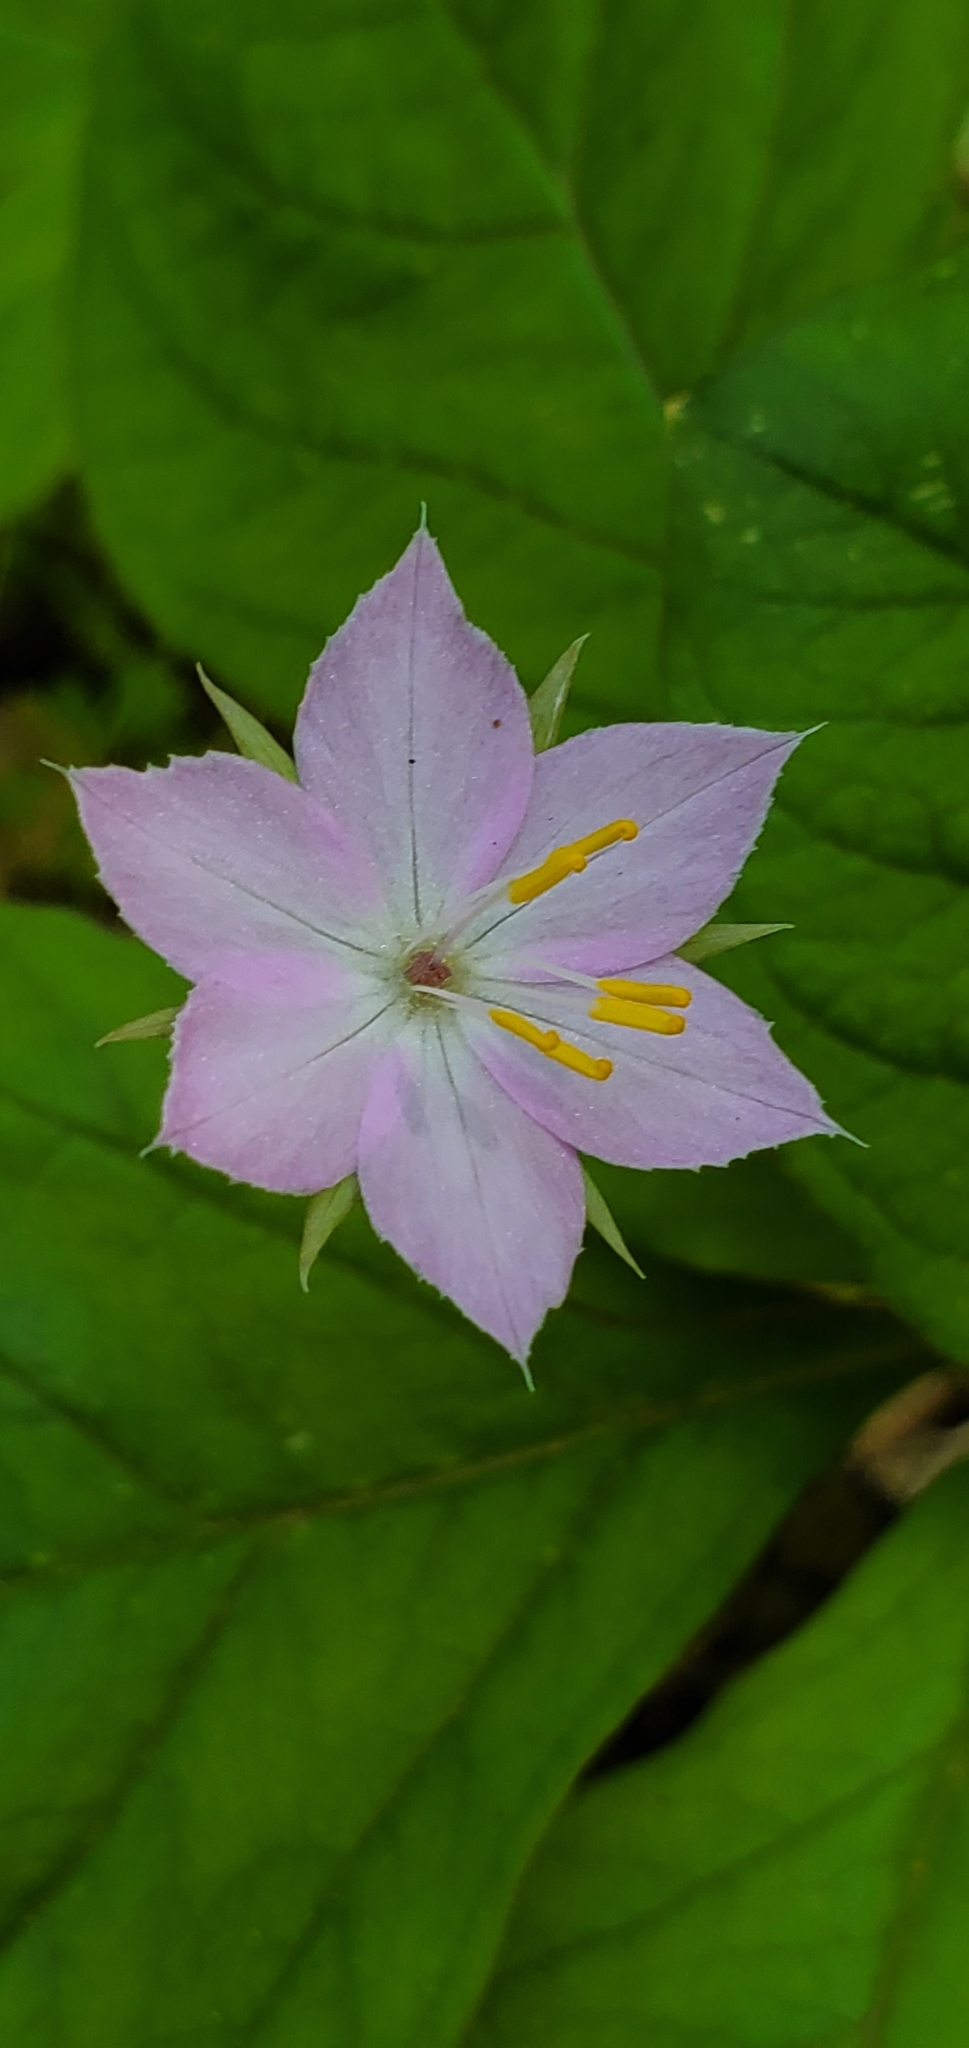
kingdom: Plantae
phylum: Tracheophyta
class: Magnoliopsida
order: Ericales
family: Primulaceae
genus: Lysimachia
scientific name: Lysimachia latifolia
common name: Pacific starflower
